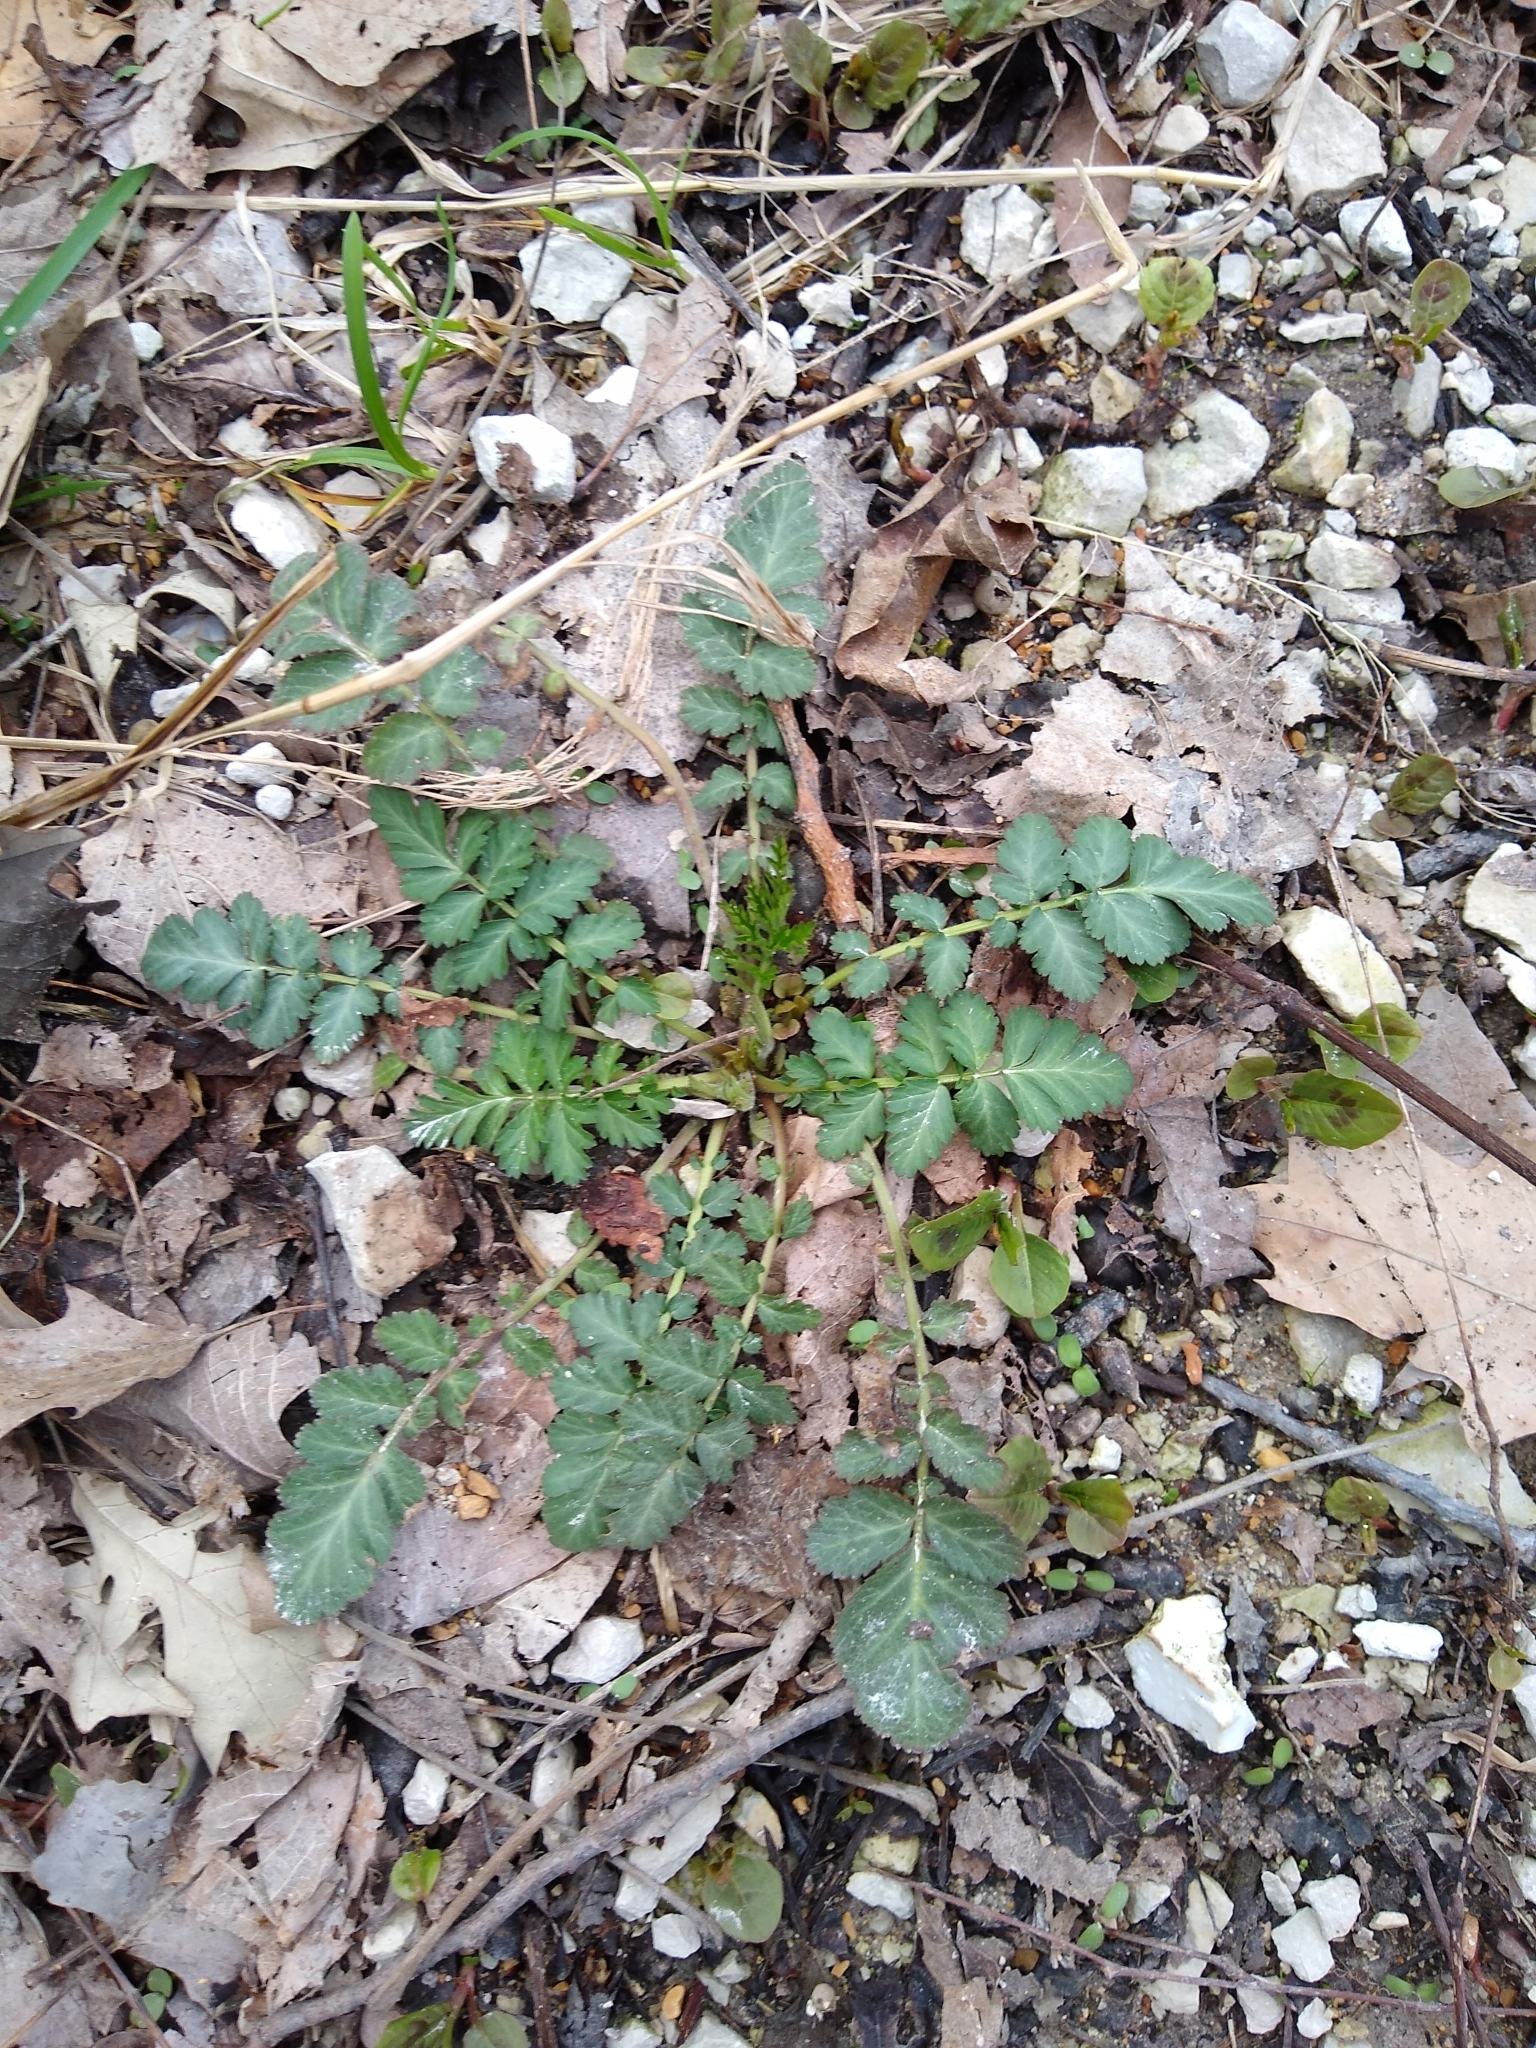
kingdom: Plantae
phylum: Tracheophyta
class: Magnoliopsida
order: Rosales
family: Rosaceae
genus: Geum
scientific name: Geum canadense
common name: White avens
